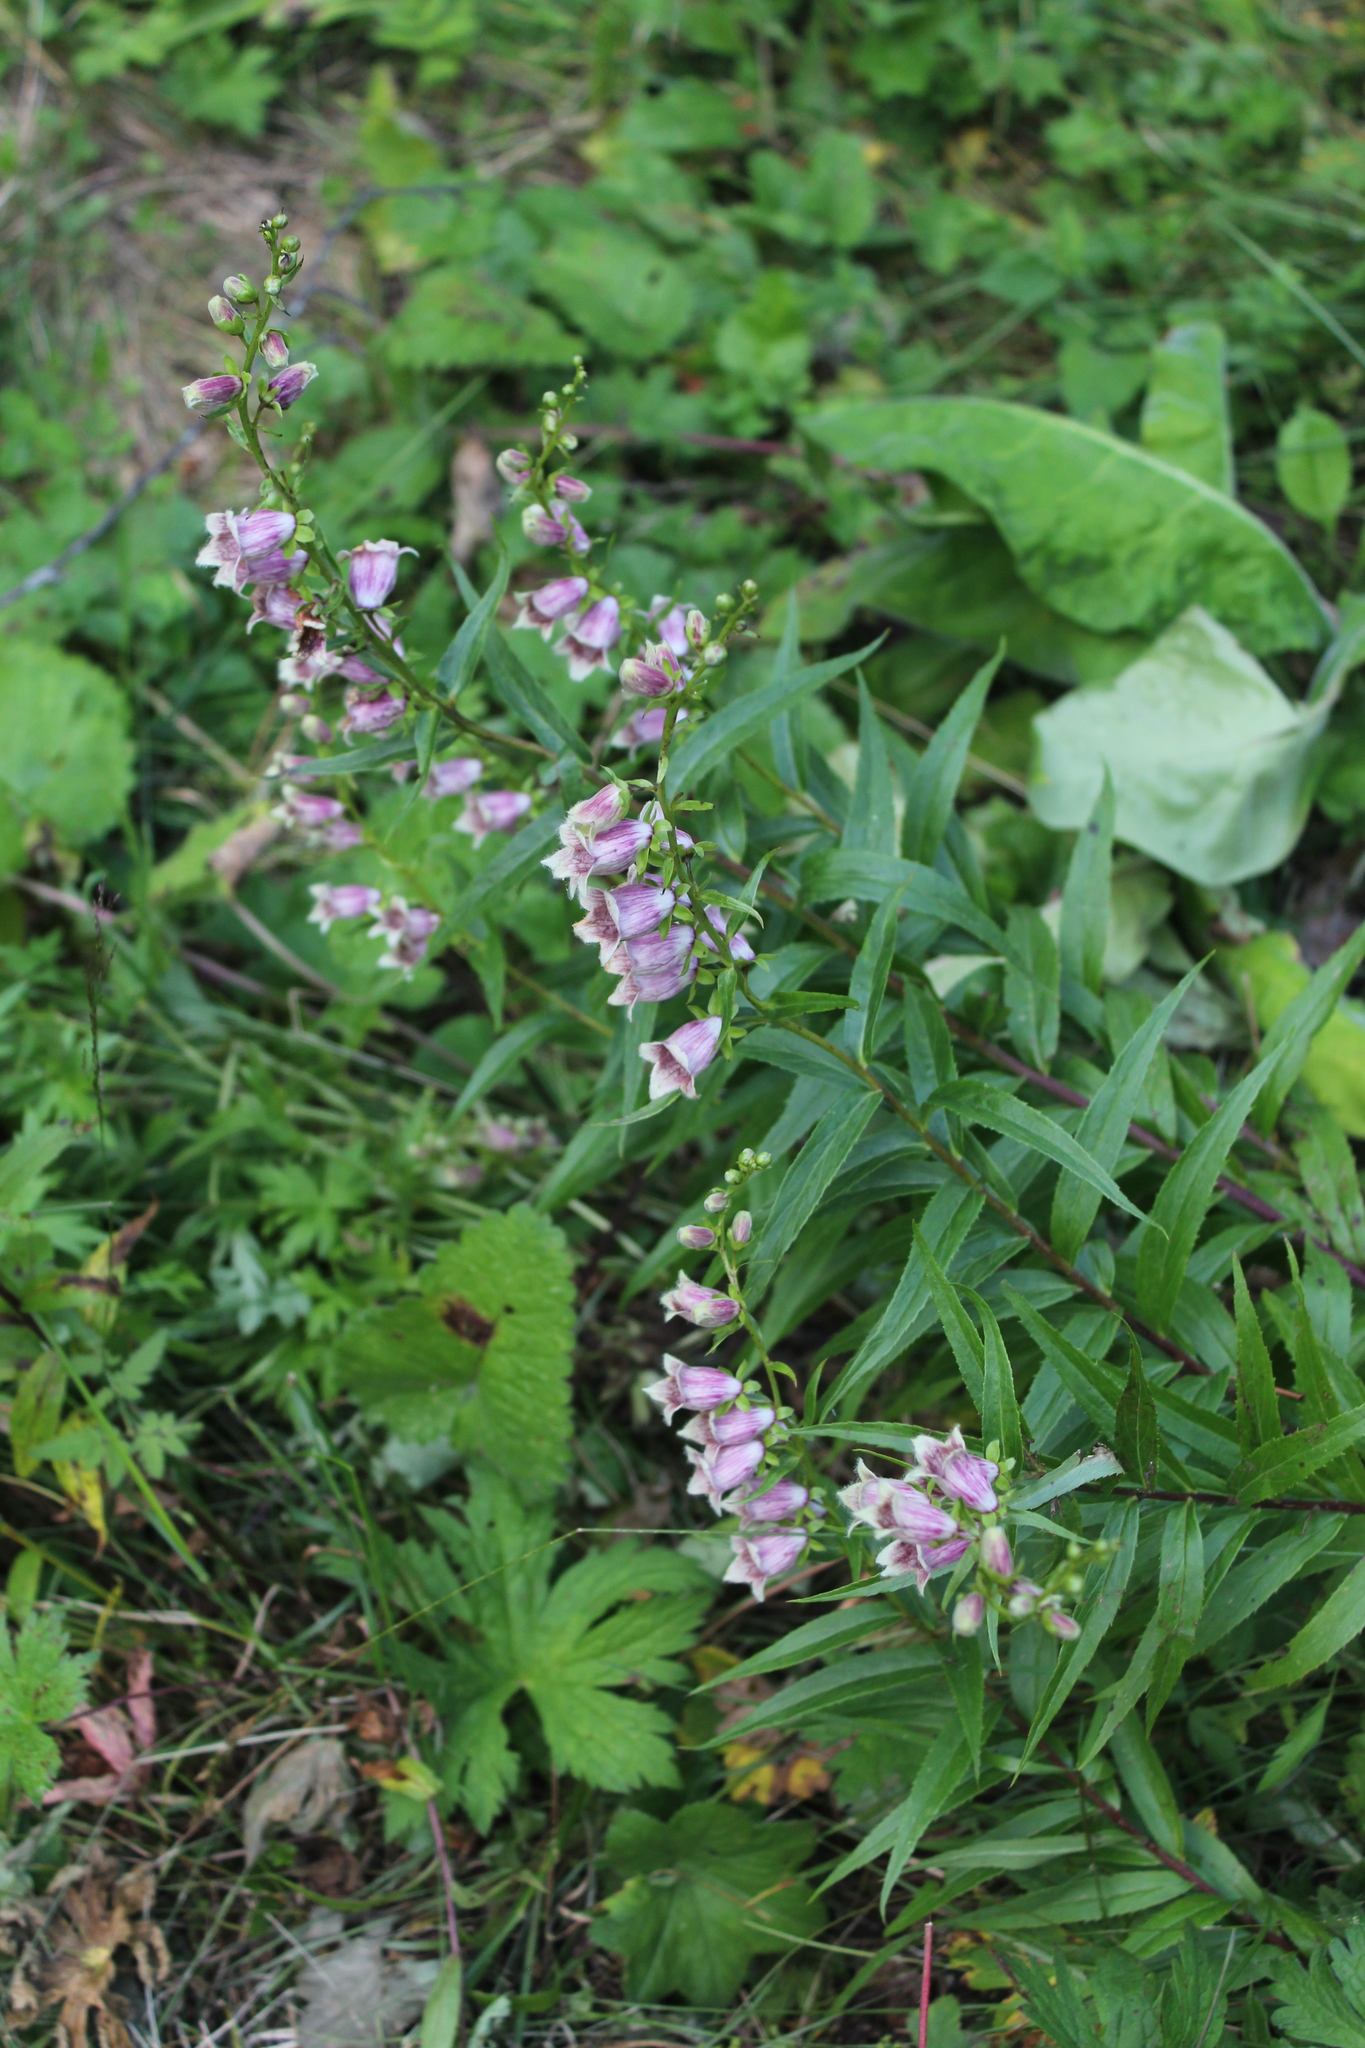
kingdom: Plantae
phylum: Tracheophyta
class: Magnoliopsida
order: Lamiales
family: Plantaginaceae
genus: Digitalis
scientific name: Digitalis ciliata
